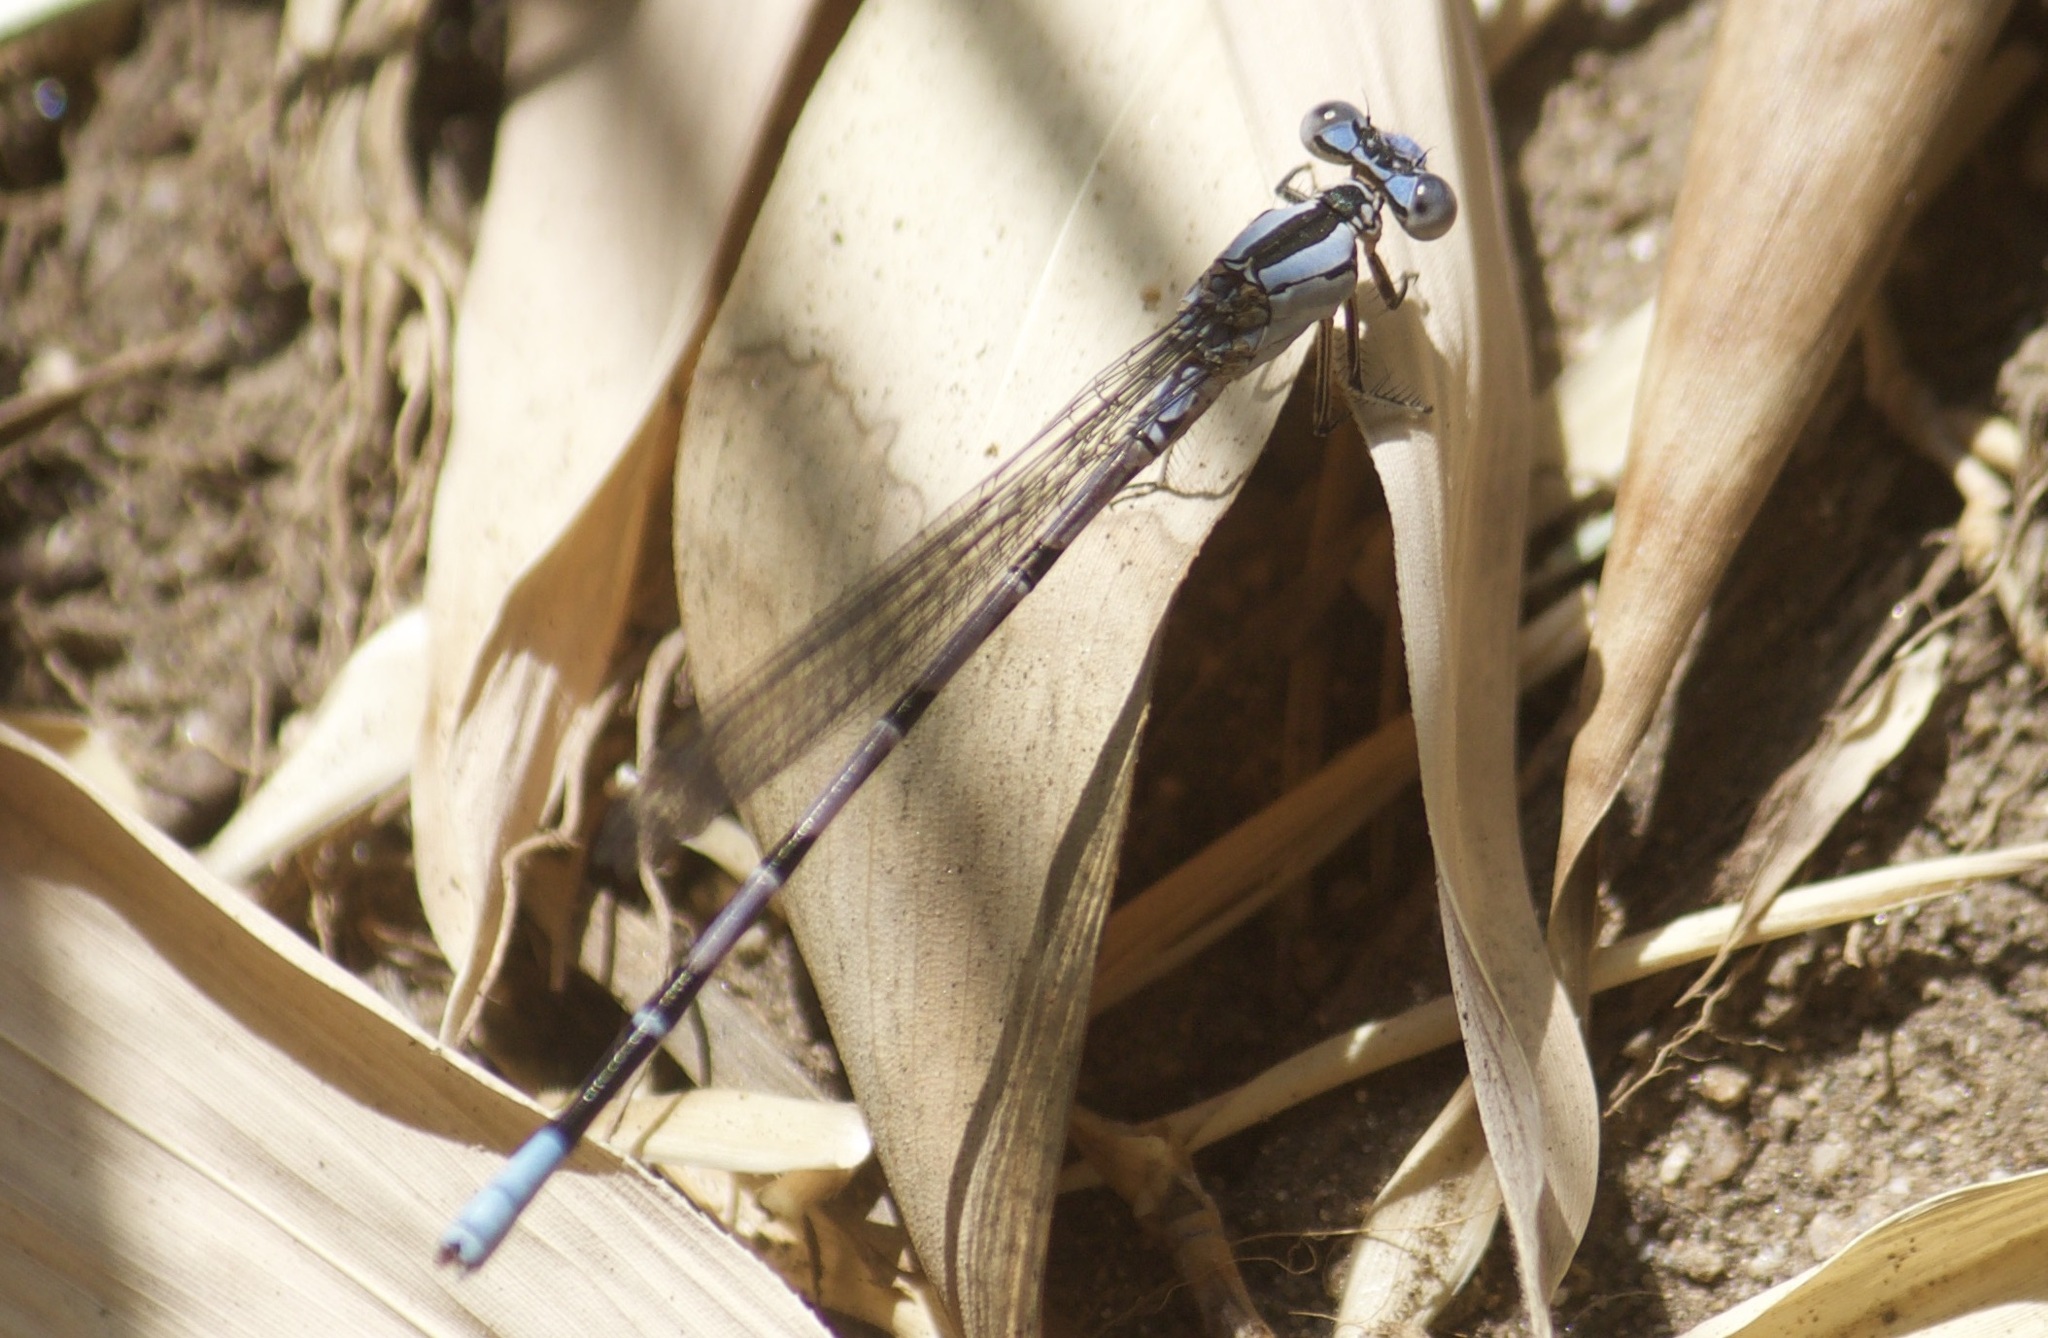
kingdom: Animalia
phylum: Arthropoda
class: Insecta
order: Odonata
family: Coenagrionidae
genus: Argia
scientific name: Argia vivida
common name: Vivid dancer
